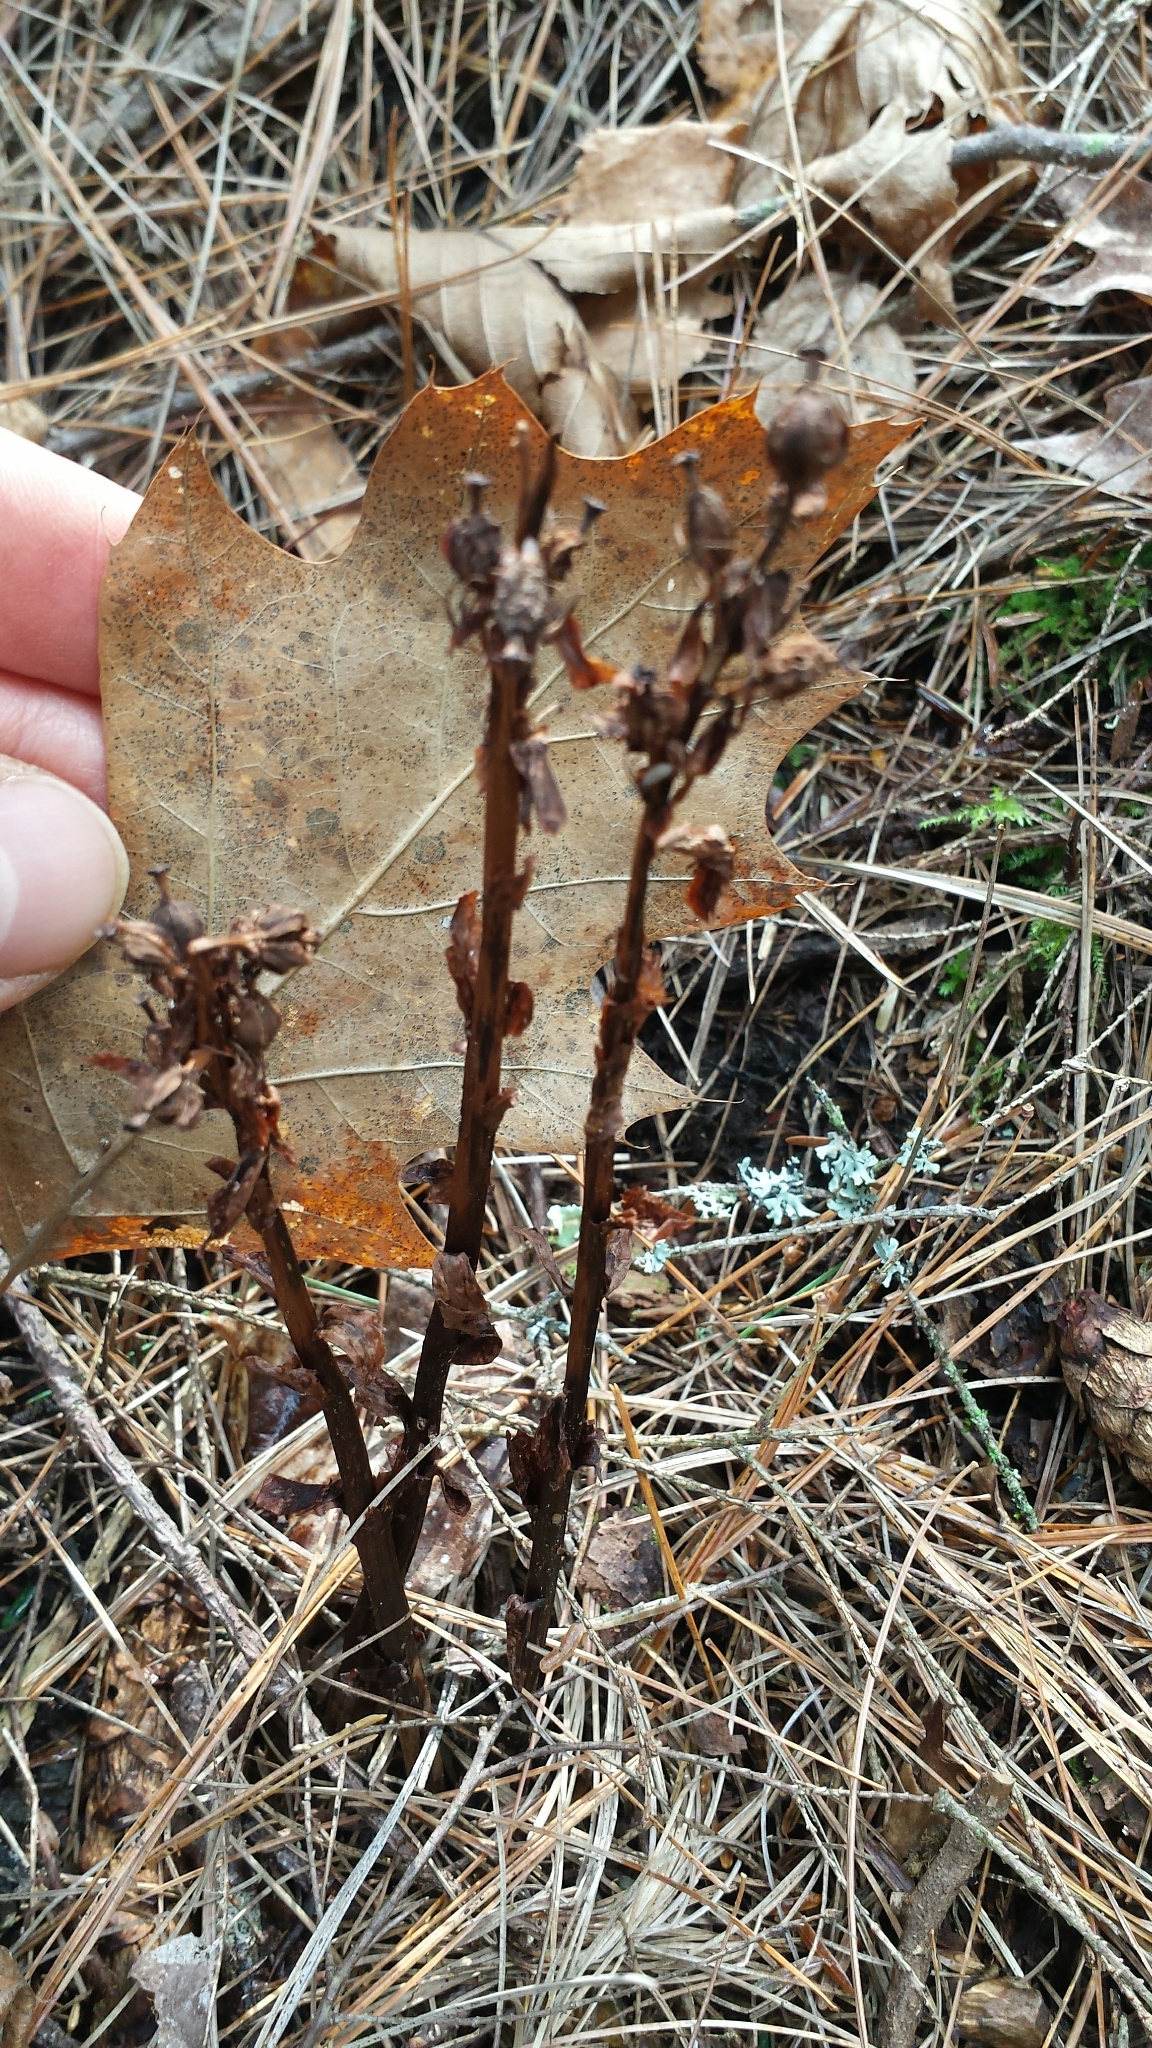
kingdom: Plantae
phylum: Tracheophyta
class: Magnoliopsida
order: Ericales
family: Ericaceae
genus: Hypopitys
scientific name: Hypopitys monotropa
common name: Yellow bird's-nest
